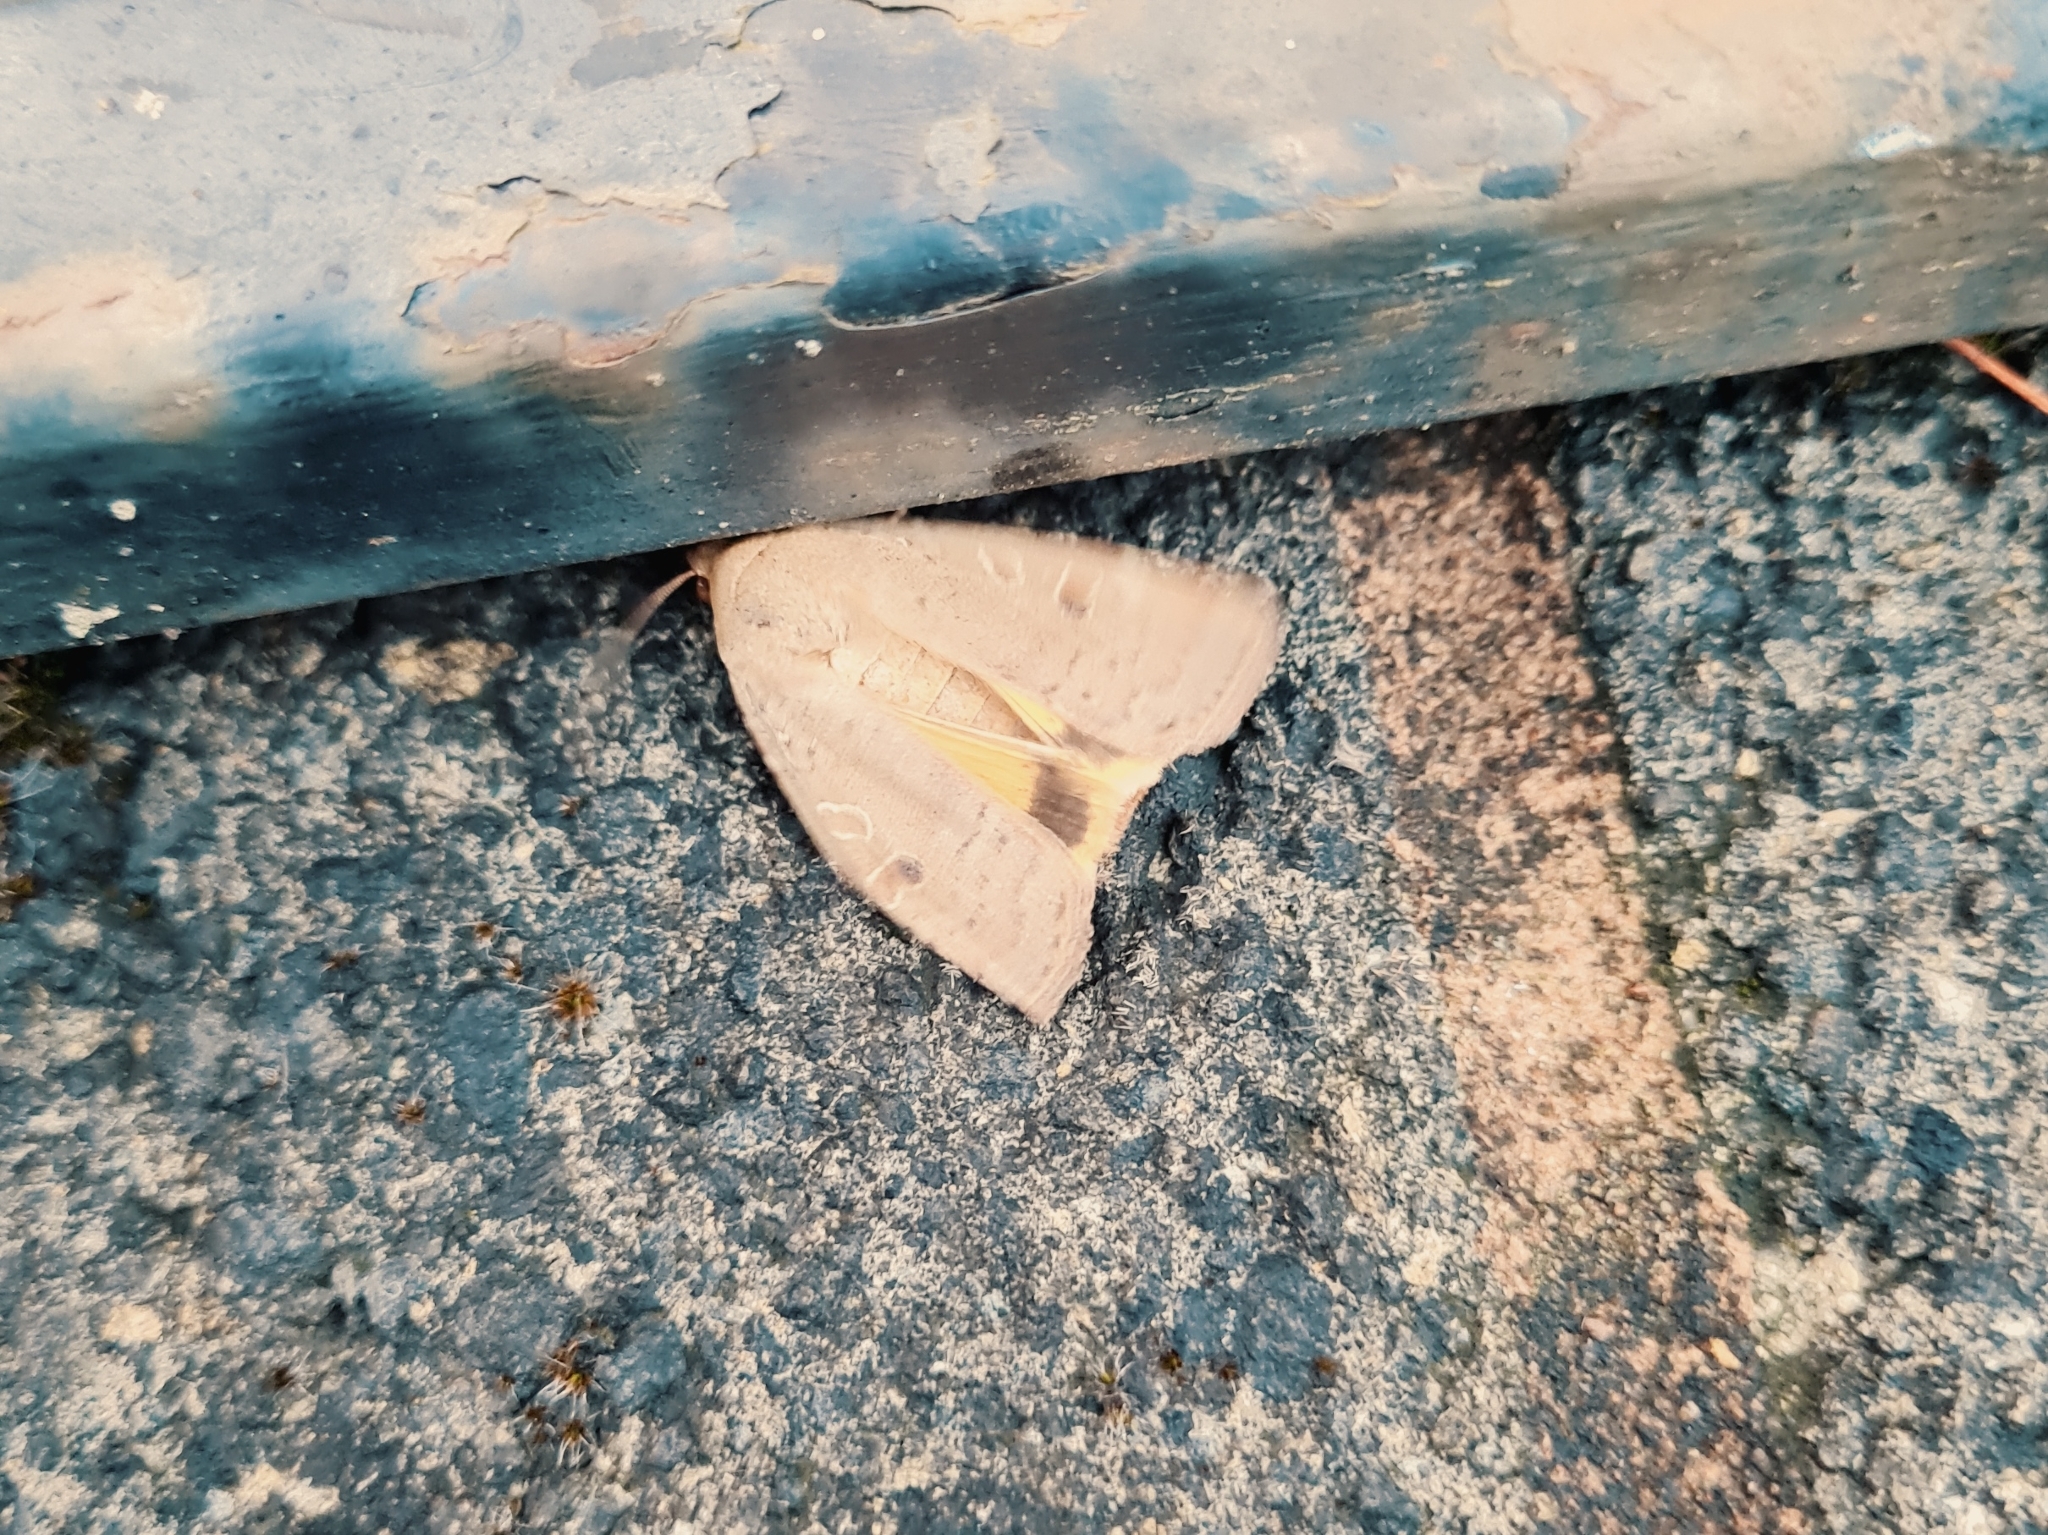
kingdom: Animalia
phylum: Arthropoda
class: Insecta
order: Lepidoptera
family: Noctuidae
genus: Noctua
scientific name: Noctua comes
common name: Lesser yellow underwing
